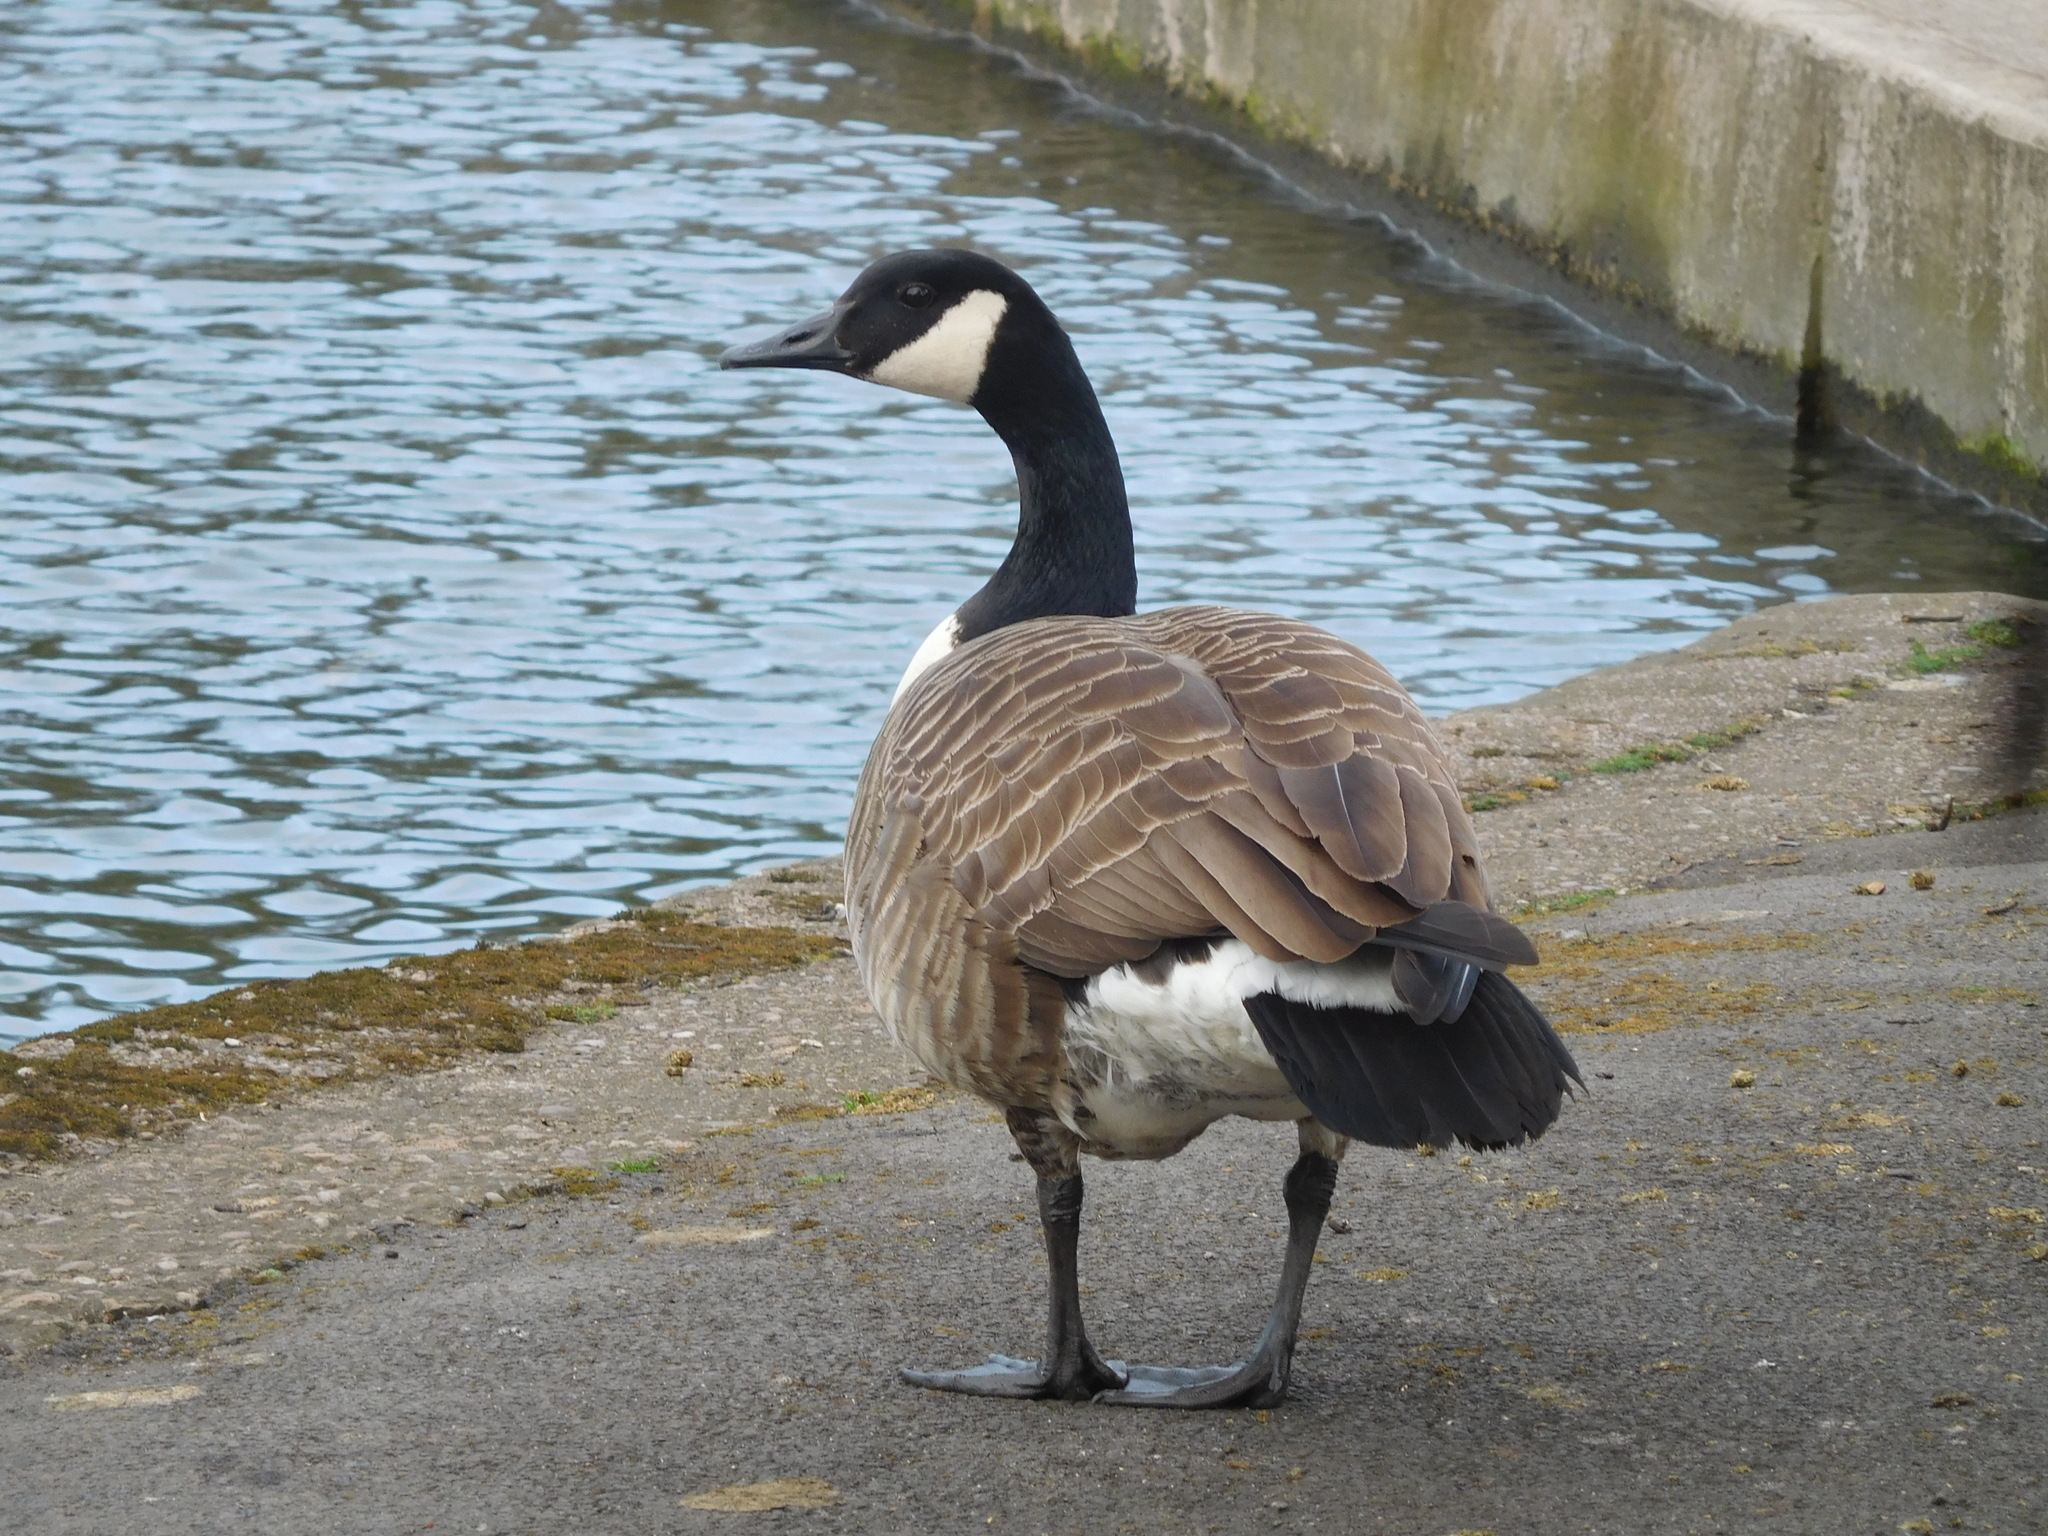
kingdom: Animalia
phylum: Chordata
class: Aves
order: Anseriformes
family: Anatidae
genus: Branta
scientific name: Branta canadensis
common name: Canada goose
